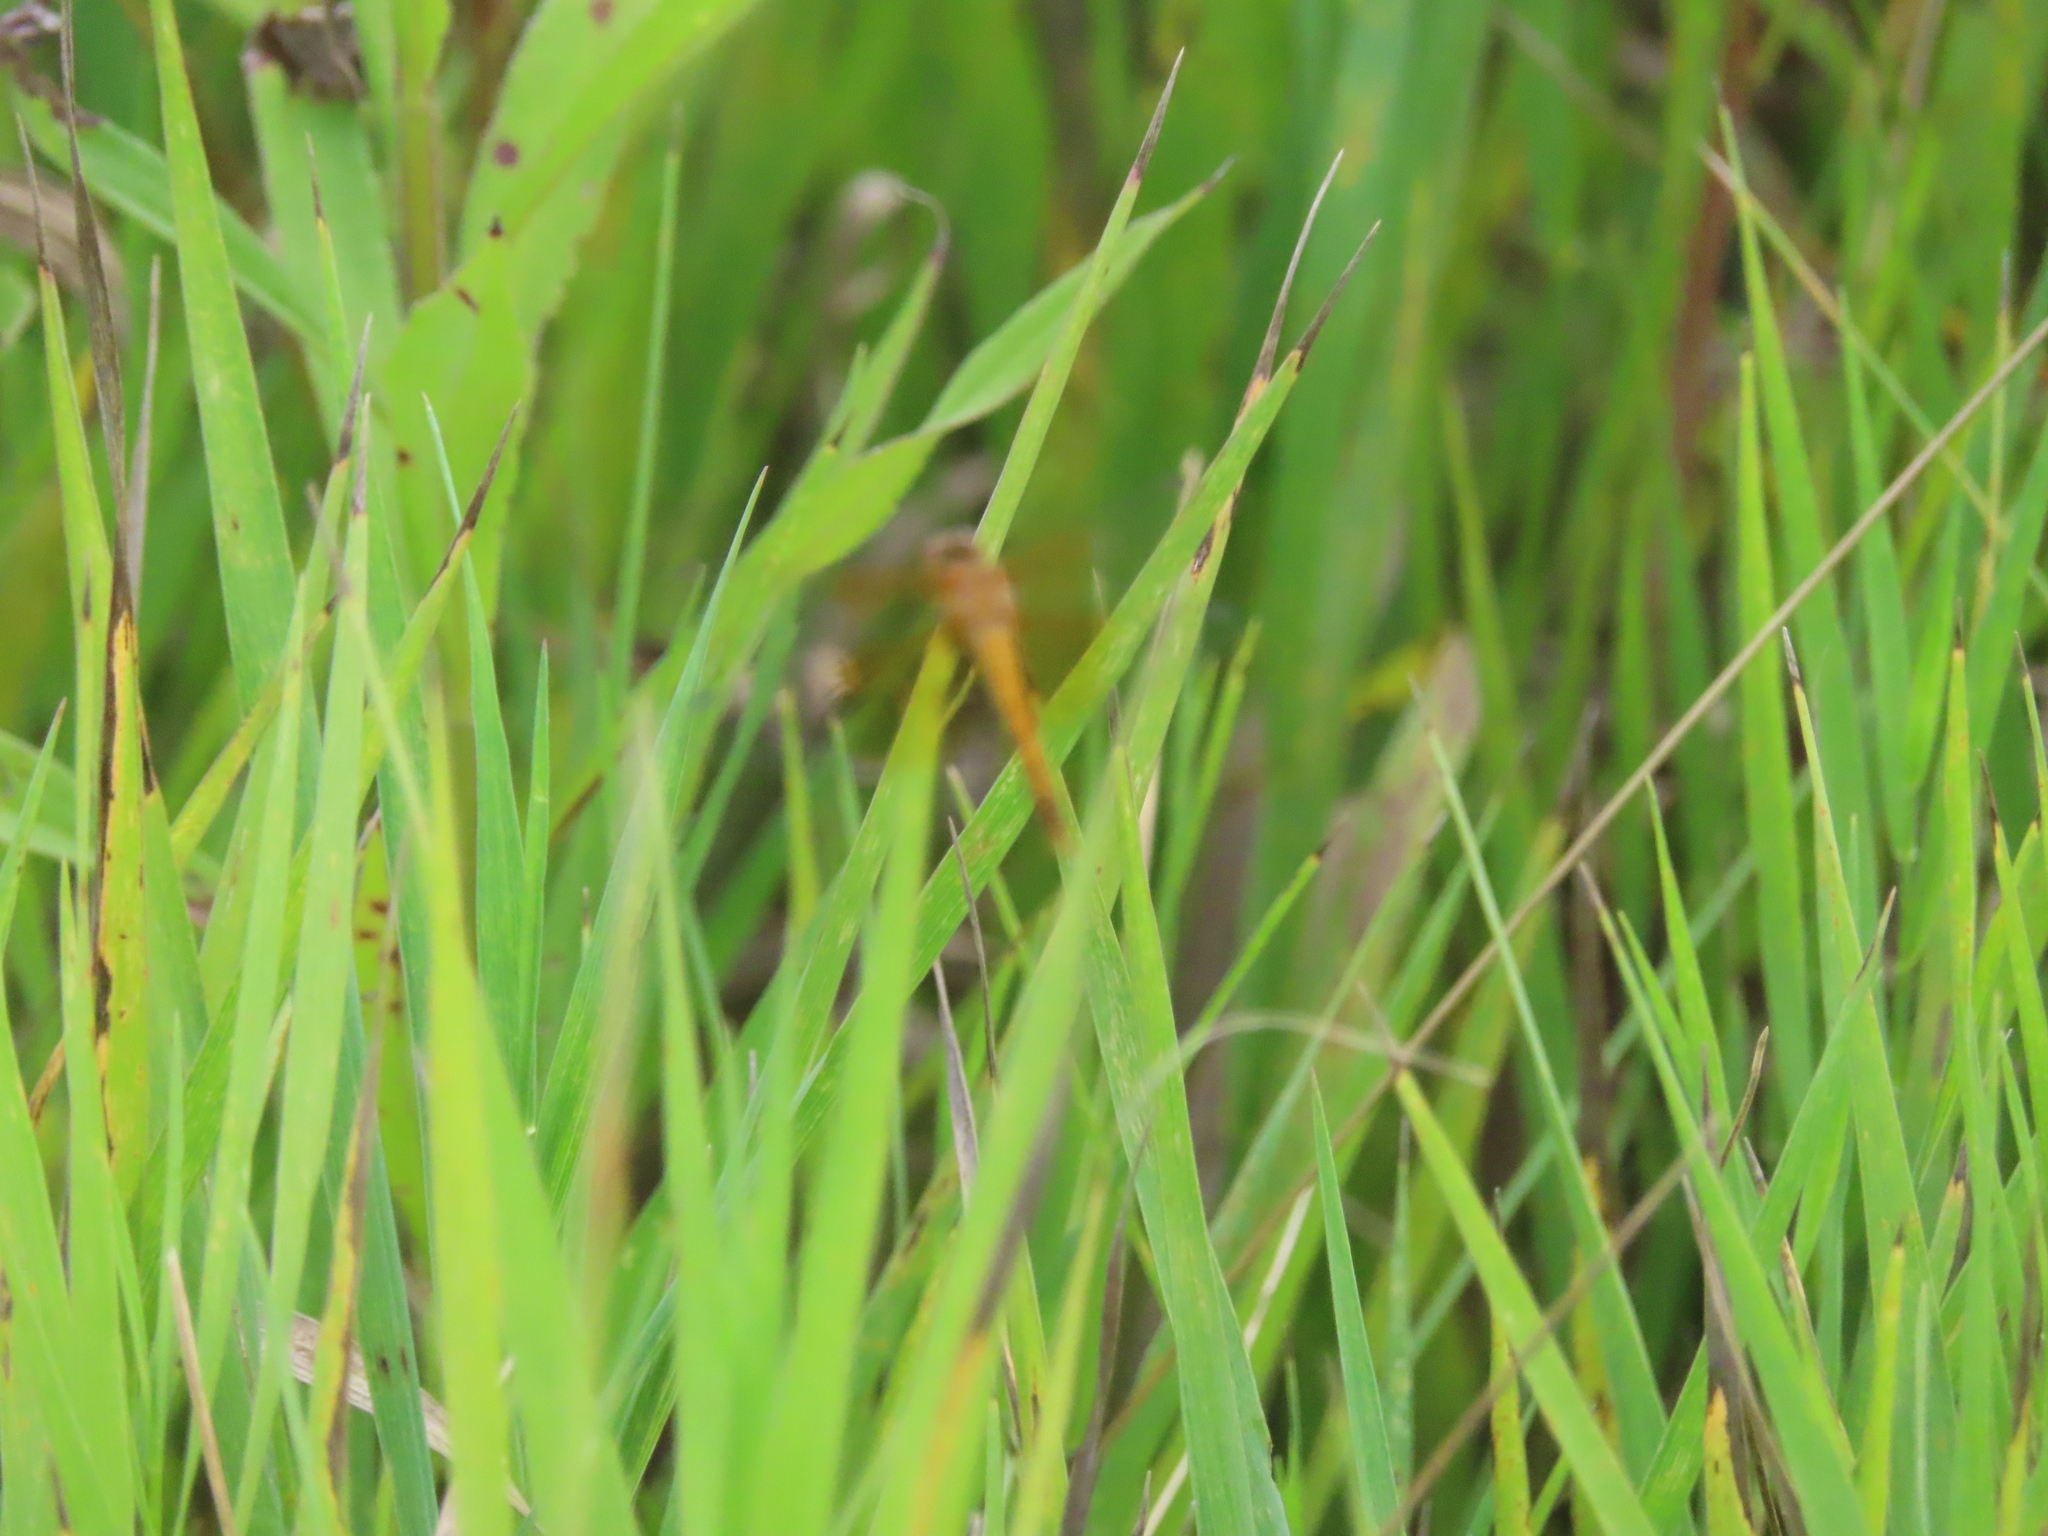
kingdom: Animalia
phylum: Arthropoda
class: Insecta
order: Odonata
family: Libellulidae
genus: Sympetrum
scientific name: Sympetrum semicinctum
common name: Band-winged meadowhawk
